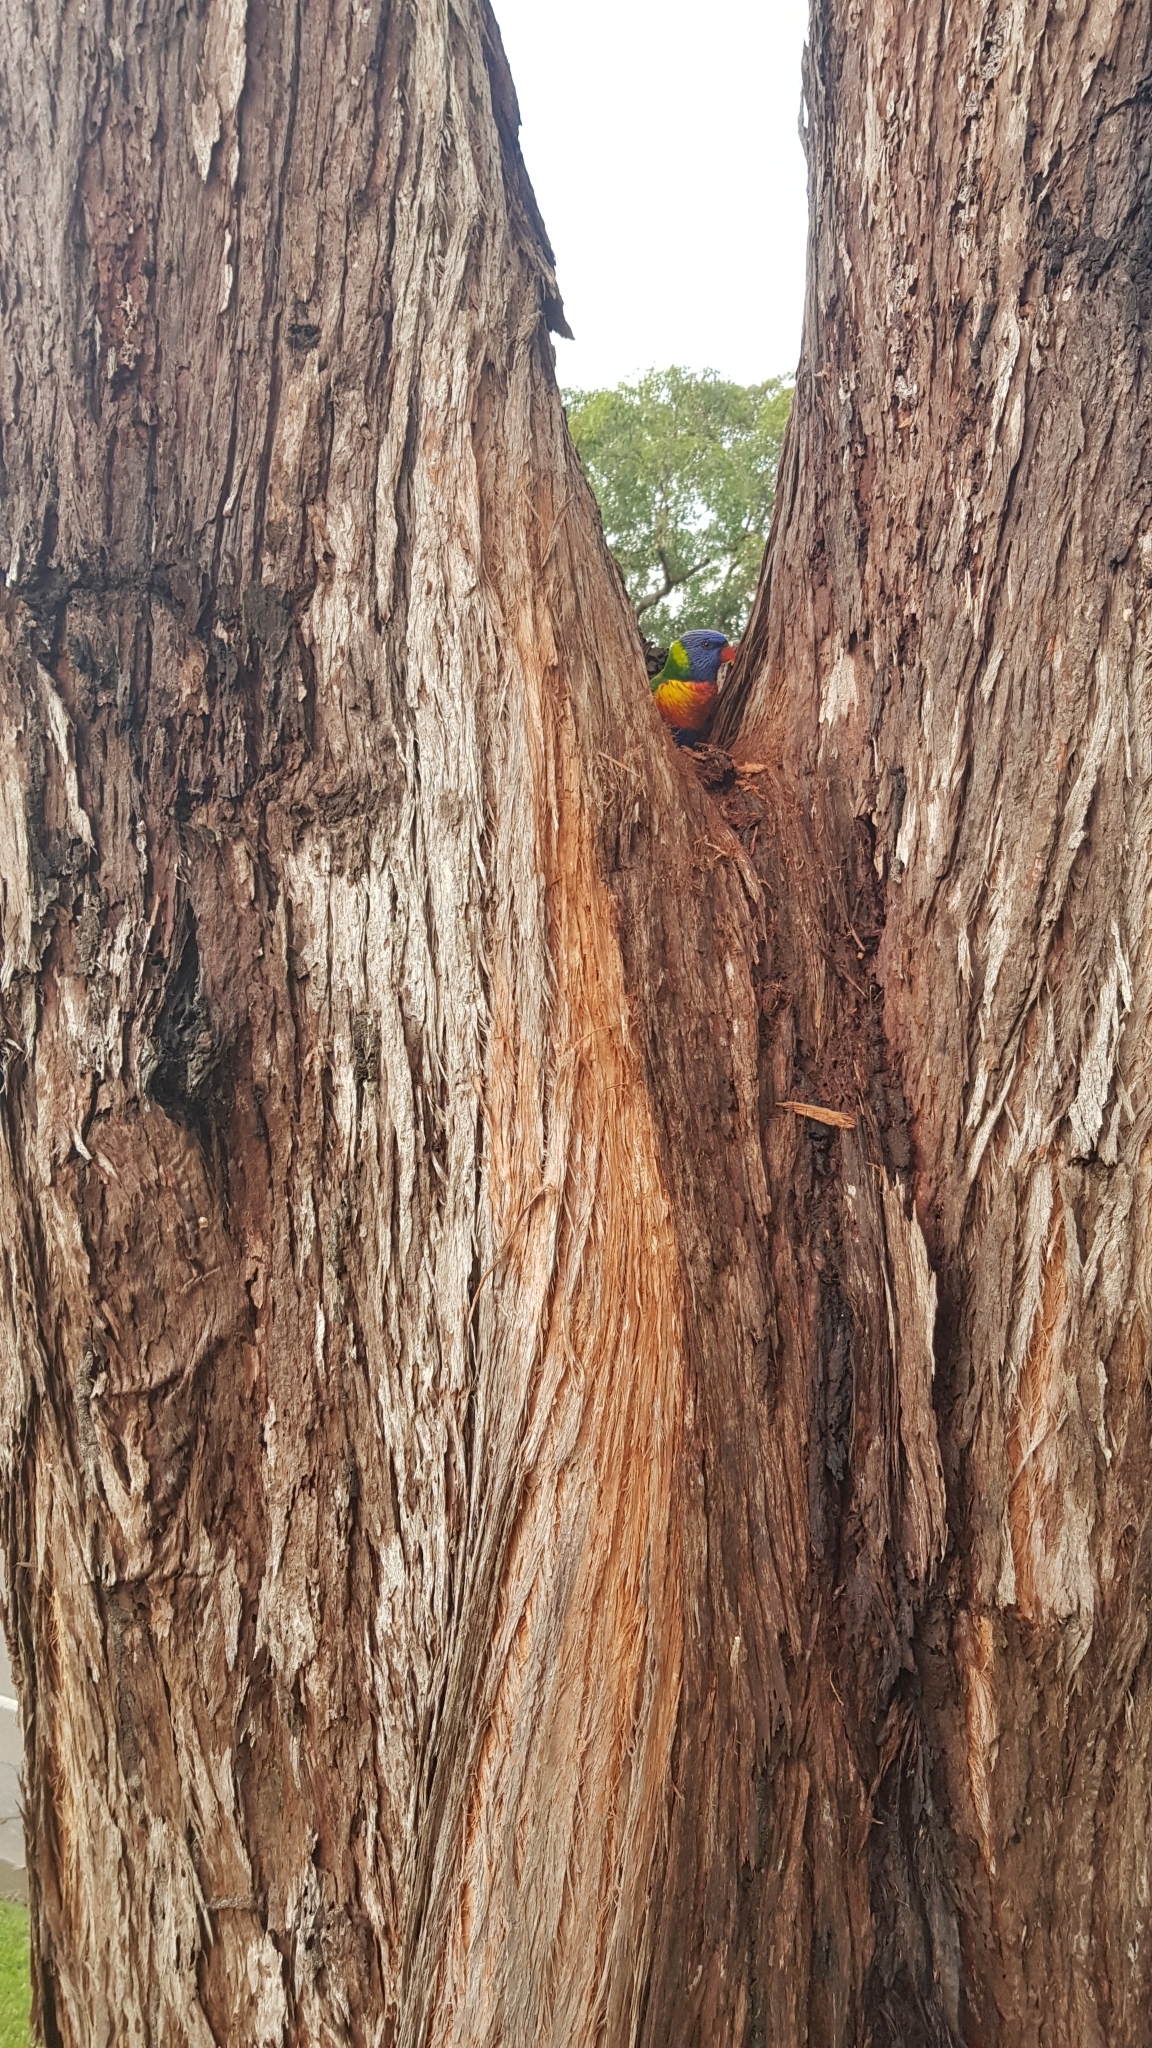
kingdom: Animalia
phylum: Chordata
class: Aves
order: Psittaciformes
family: Psittacidae
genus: Trichoglossus
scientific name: Trichoglossus haematodus
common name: Coconut lorikeet
